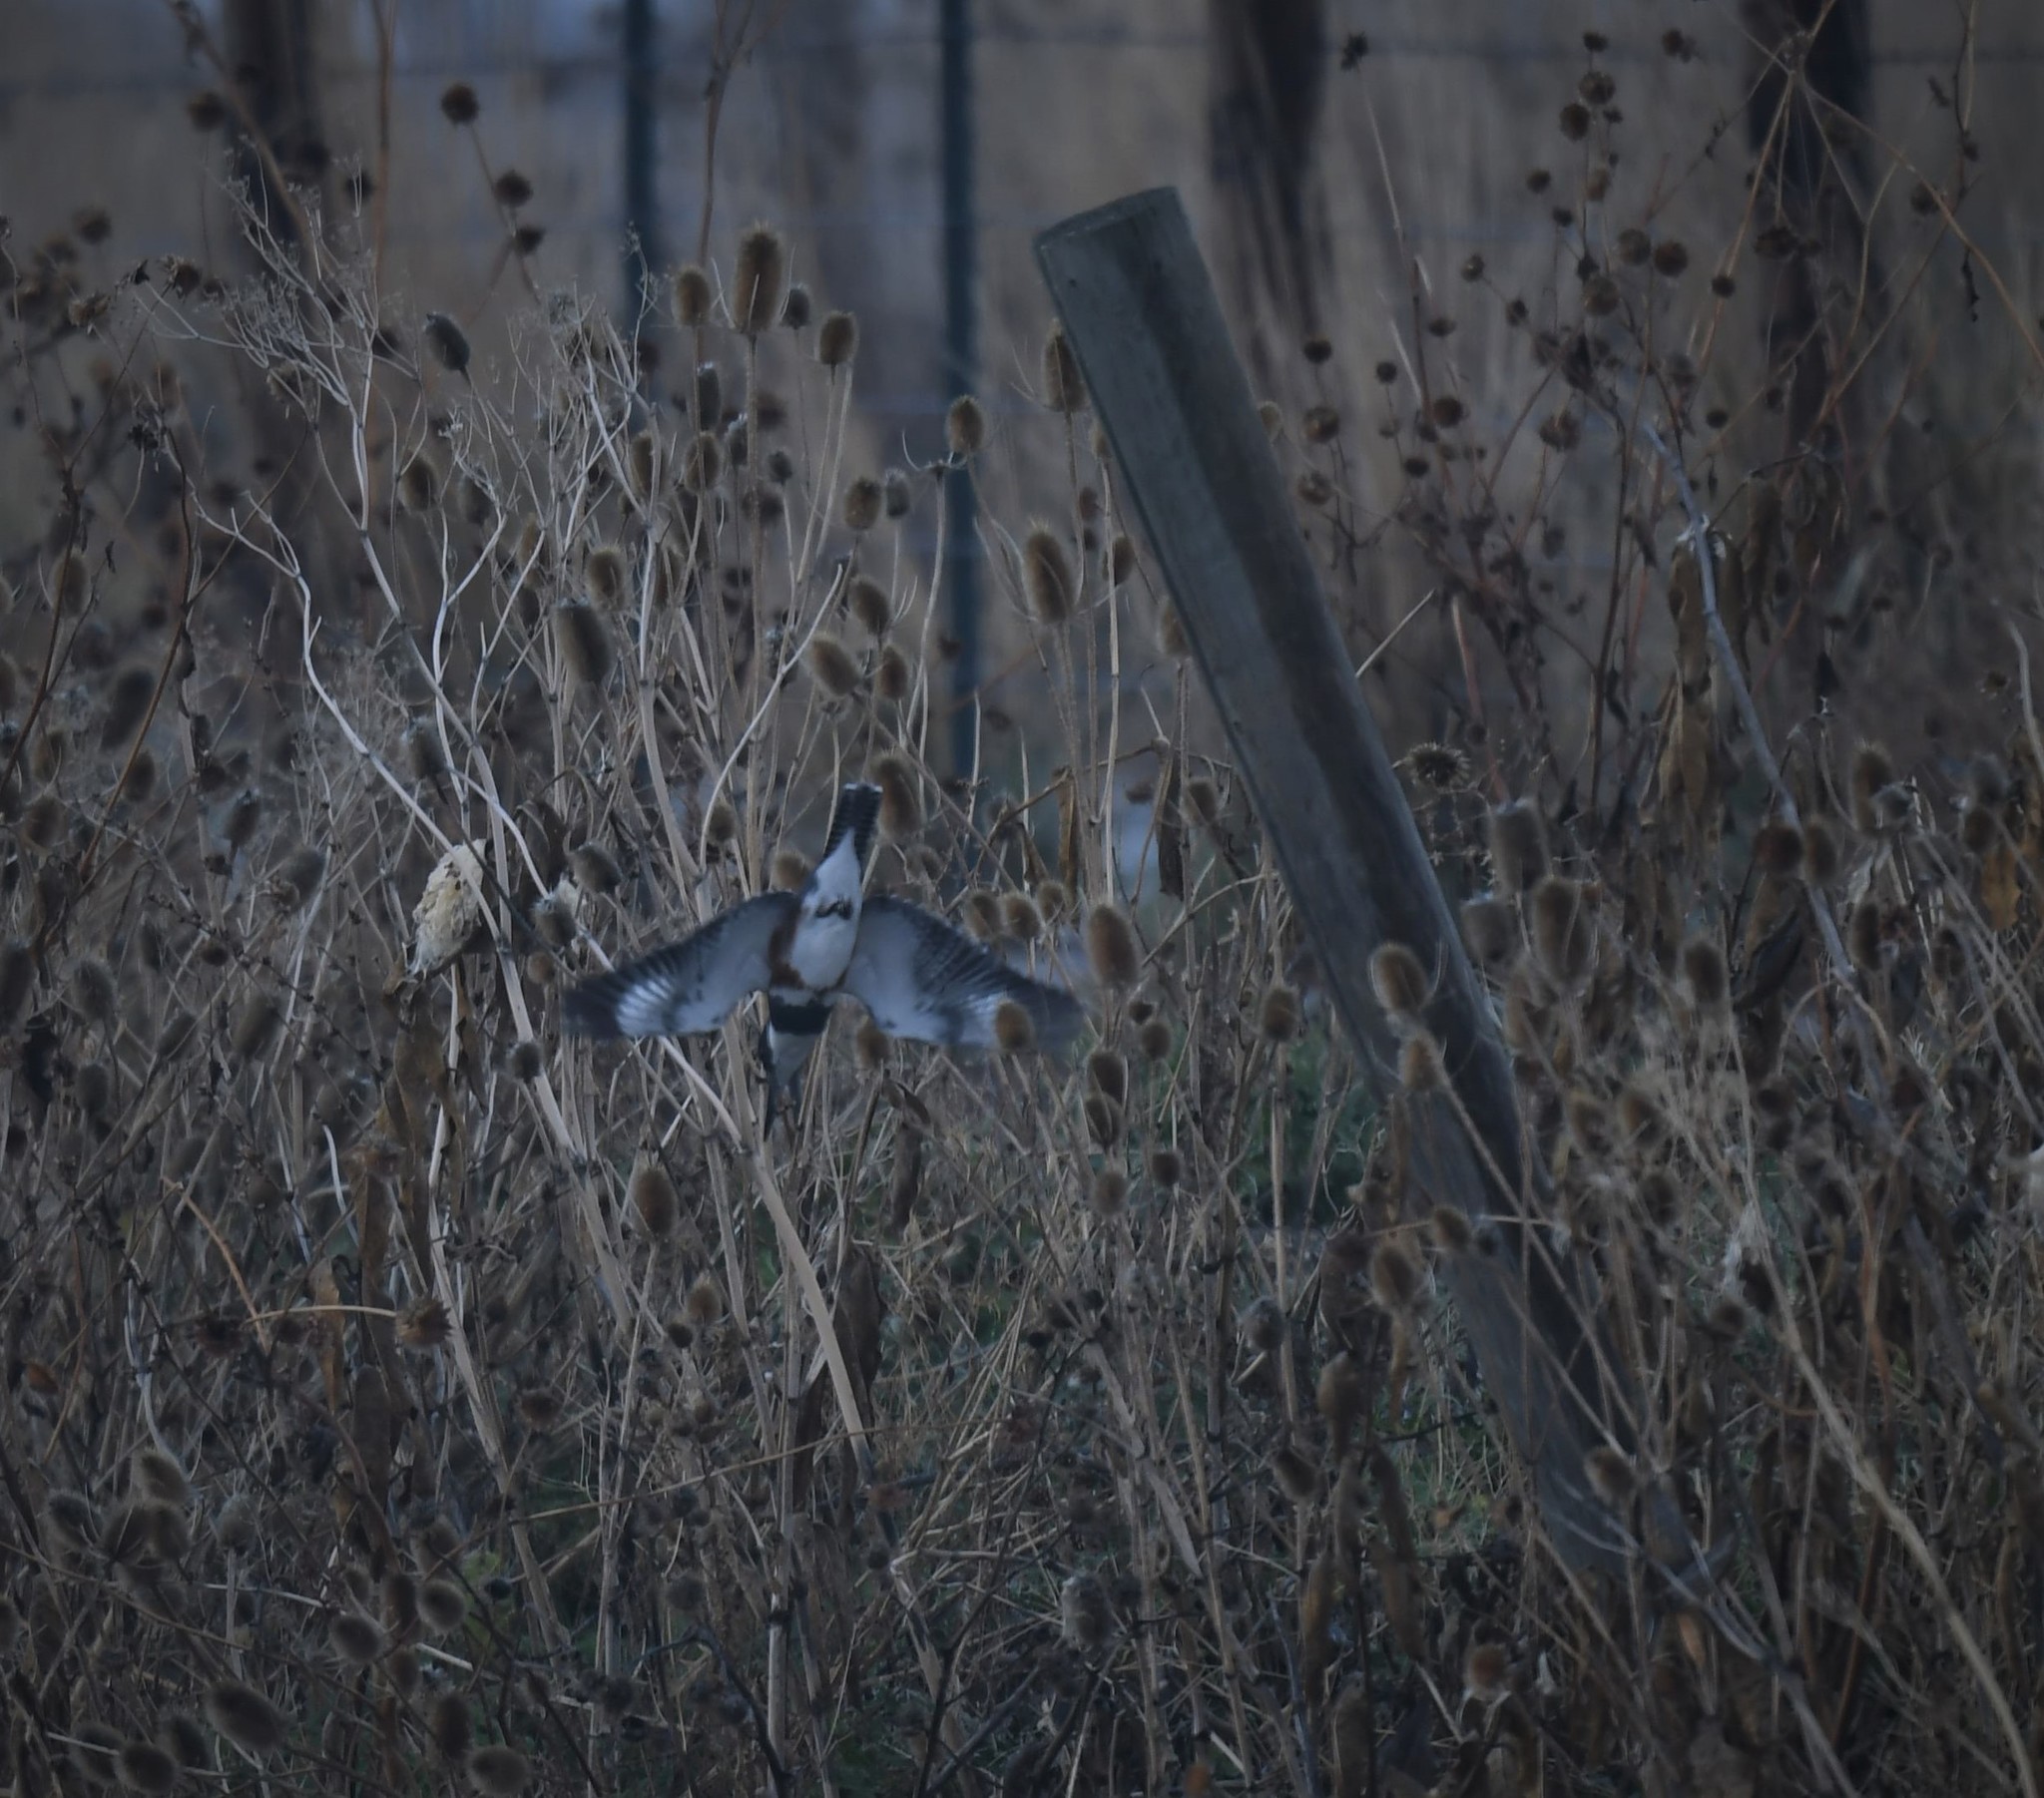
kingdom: Animalia
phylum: Chordata
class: Aves
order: Coraciiformes
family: Alcedinidae
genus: Megaceryle
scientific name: Megaceryle alcyon
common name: Belted kingfisher
